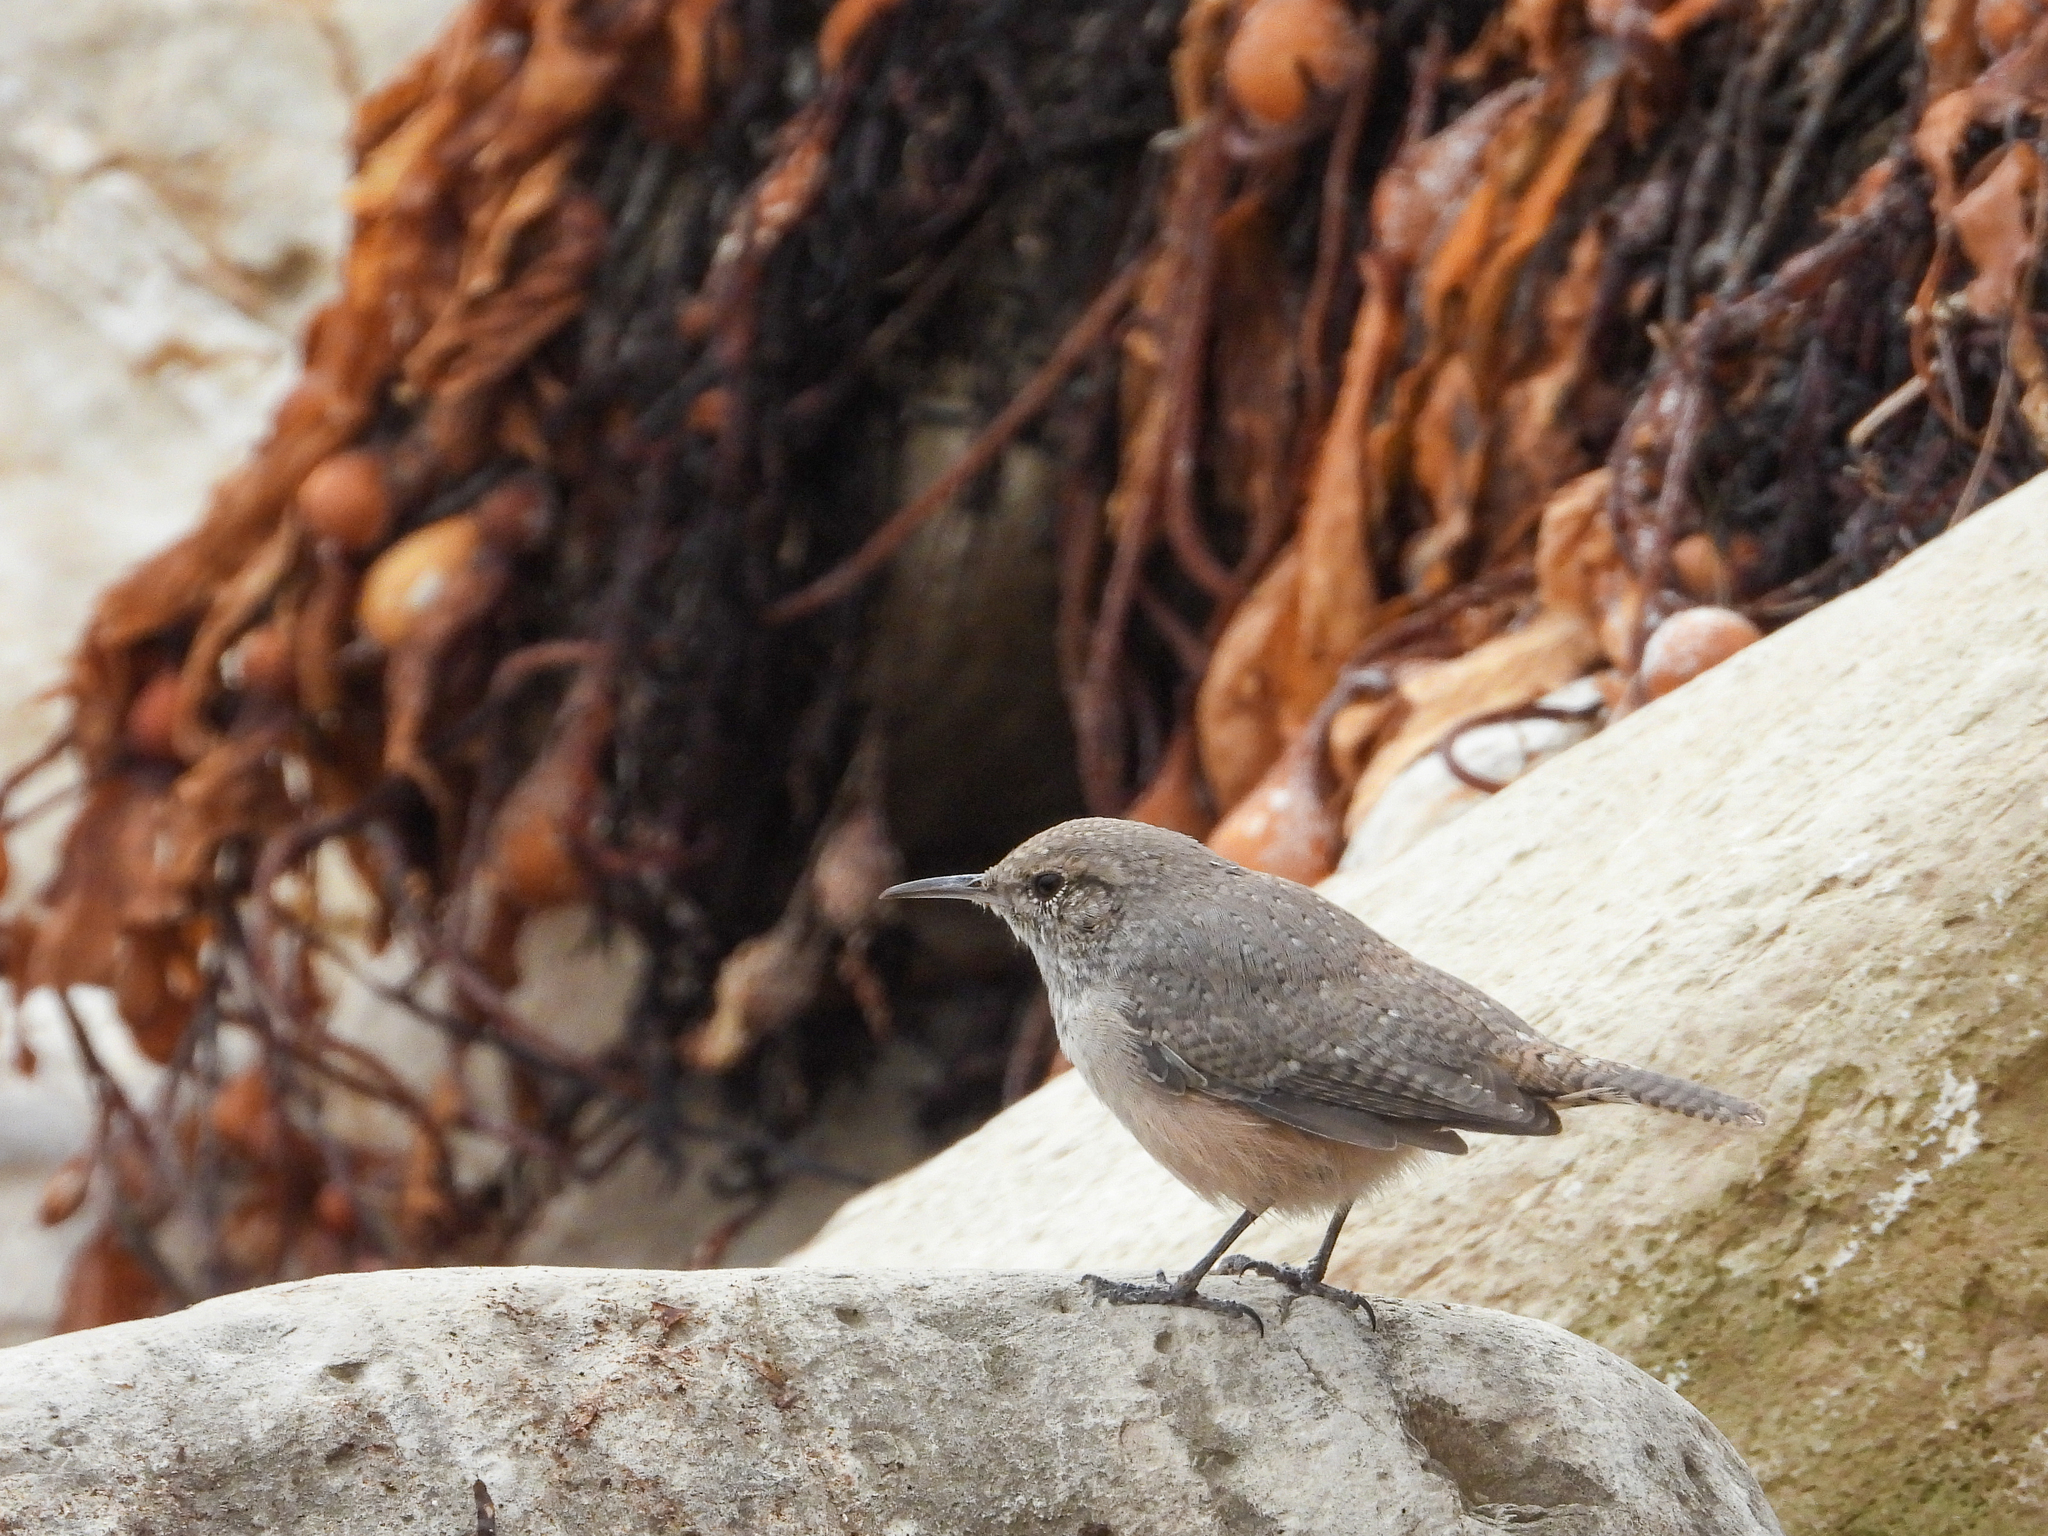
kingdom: Animalia
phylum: Chordata
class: Aves
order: Passeriformes
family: Troglodytidae
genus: Salpinctes
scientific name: Salpinctes obsoletus
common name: Rock wren
